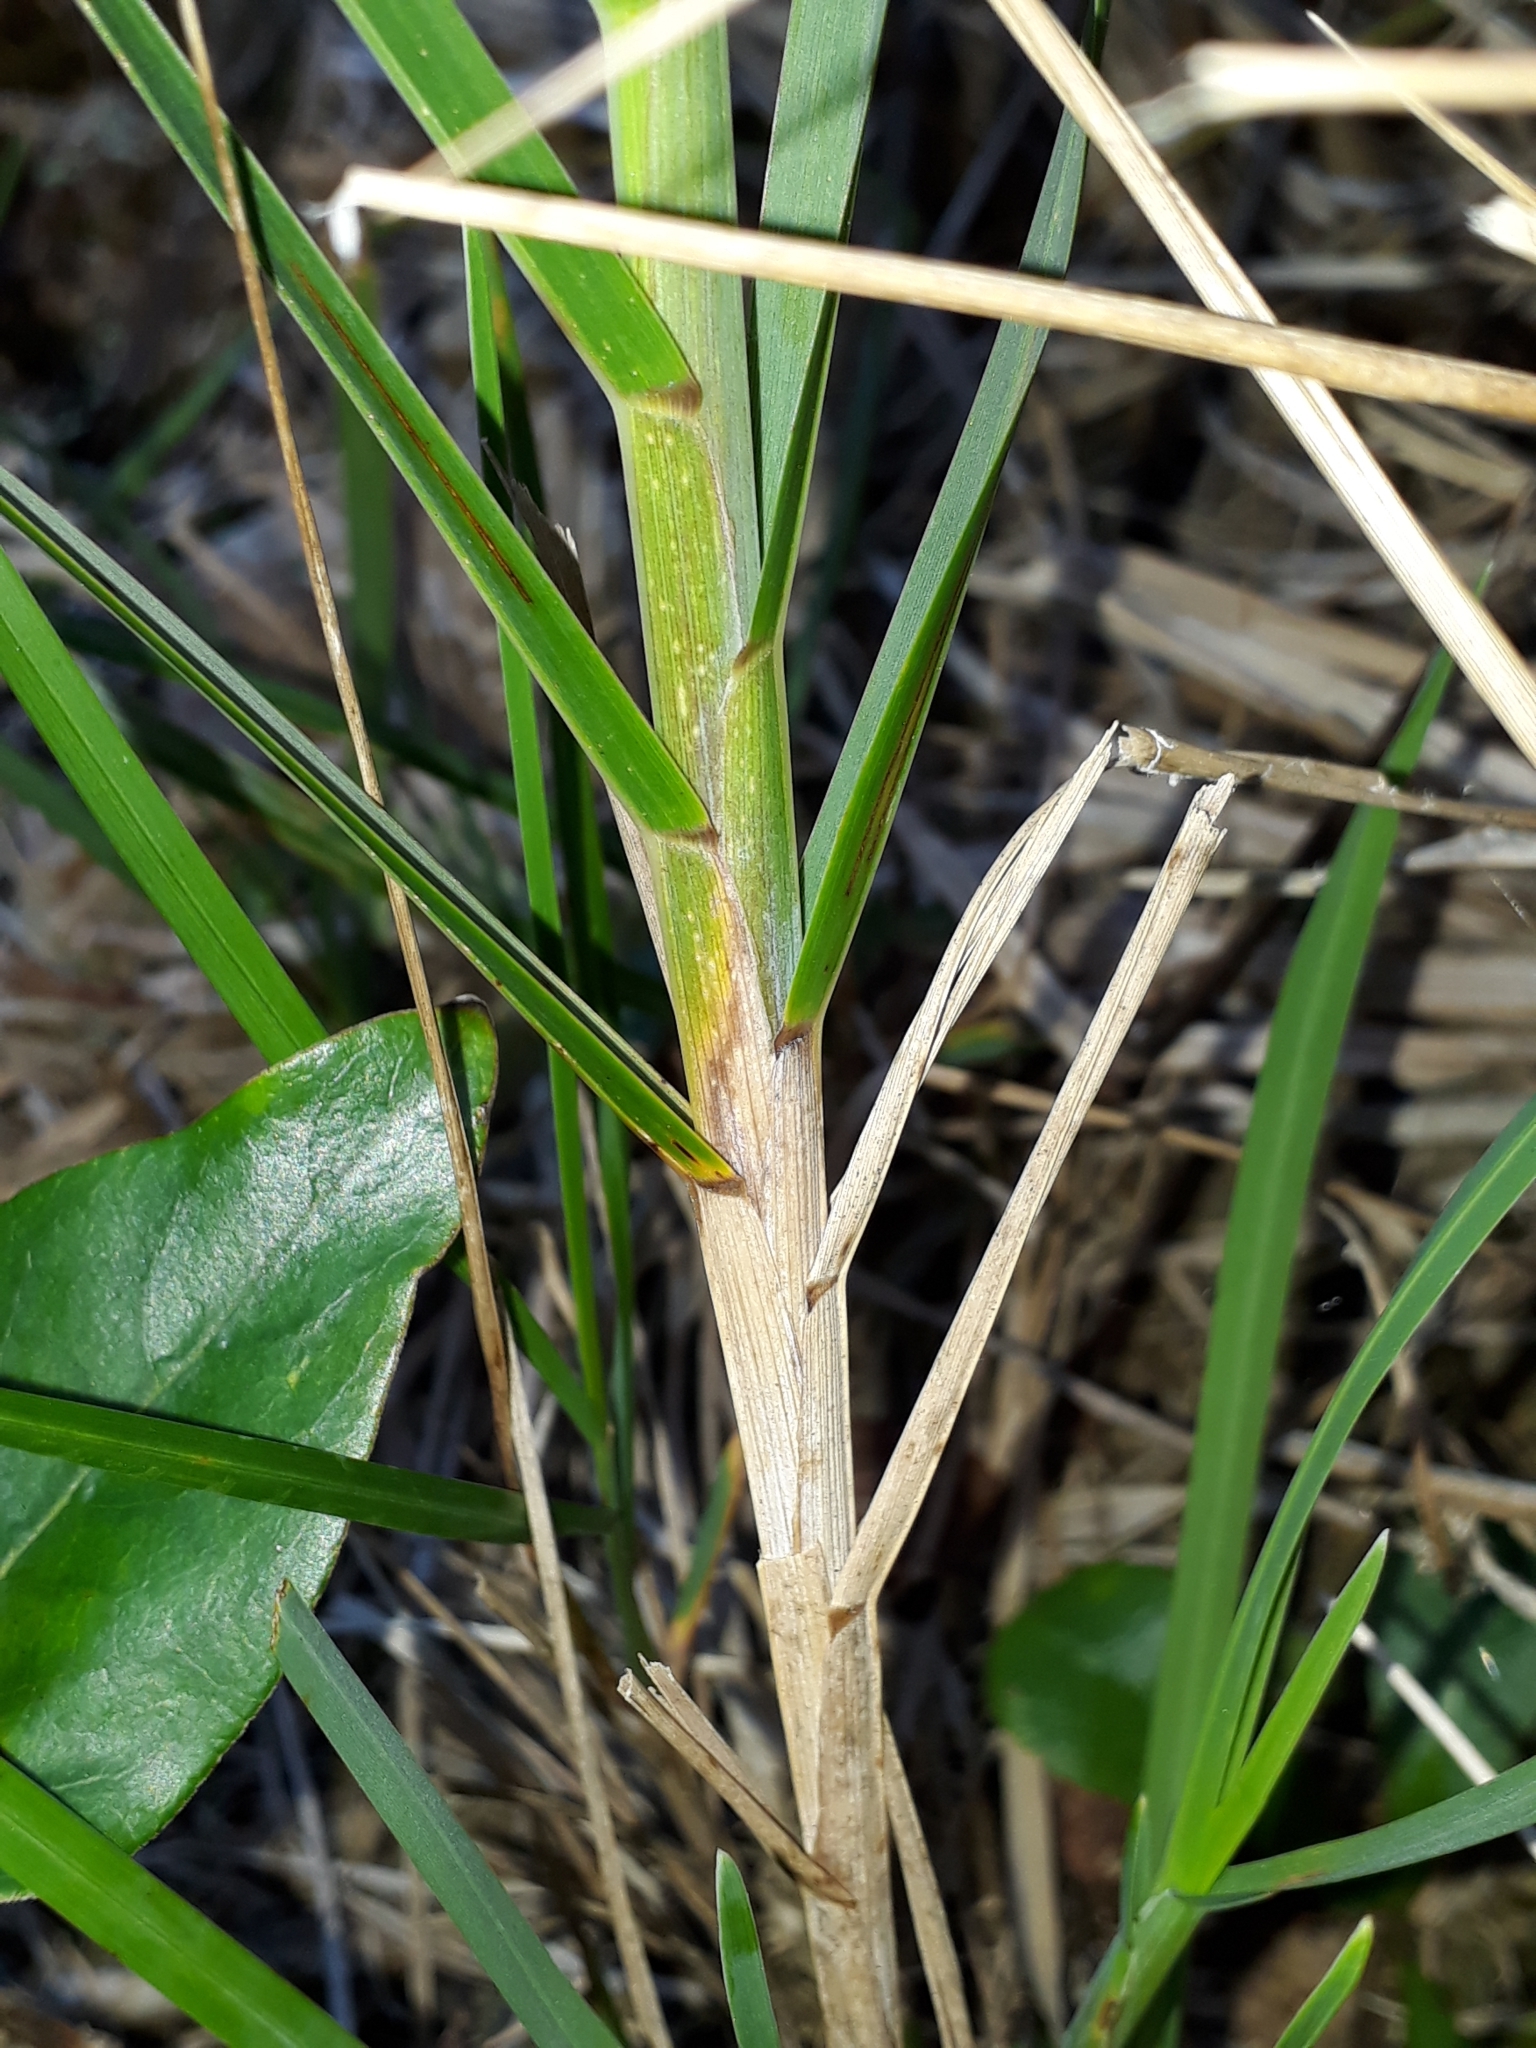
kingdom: Plantae
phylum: Tracheophyta
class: Liliopsida
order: Poales
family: Poaceae
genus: Poa
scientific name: Poa anceps
